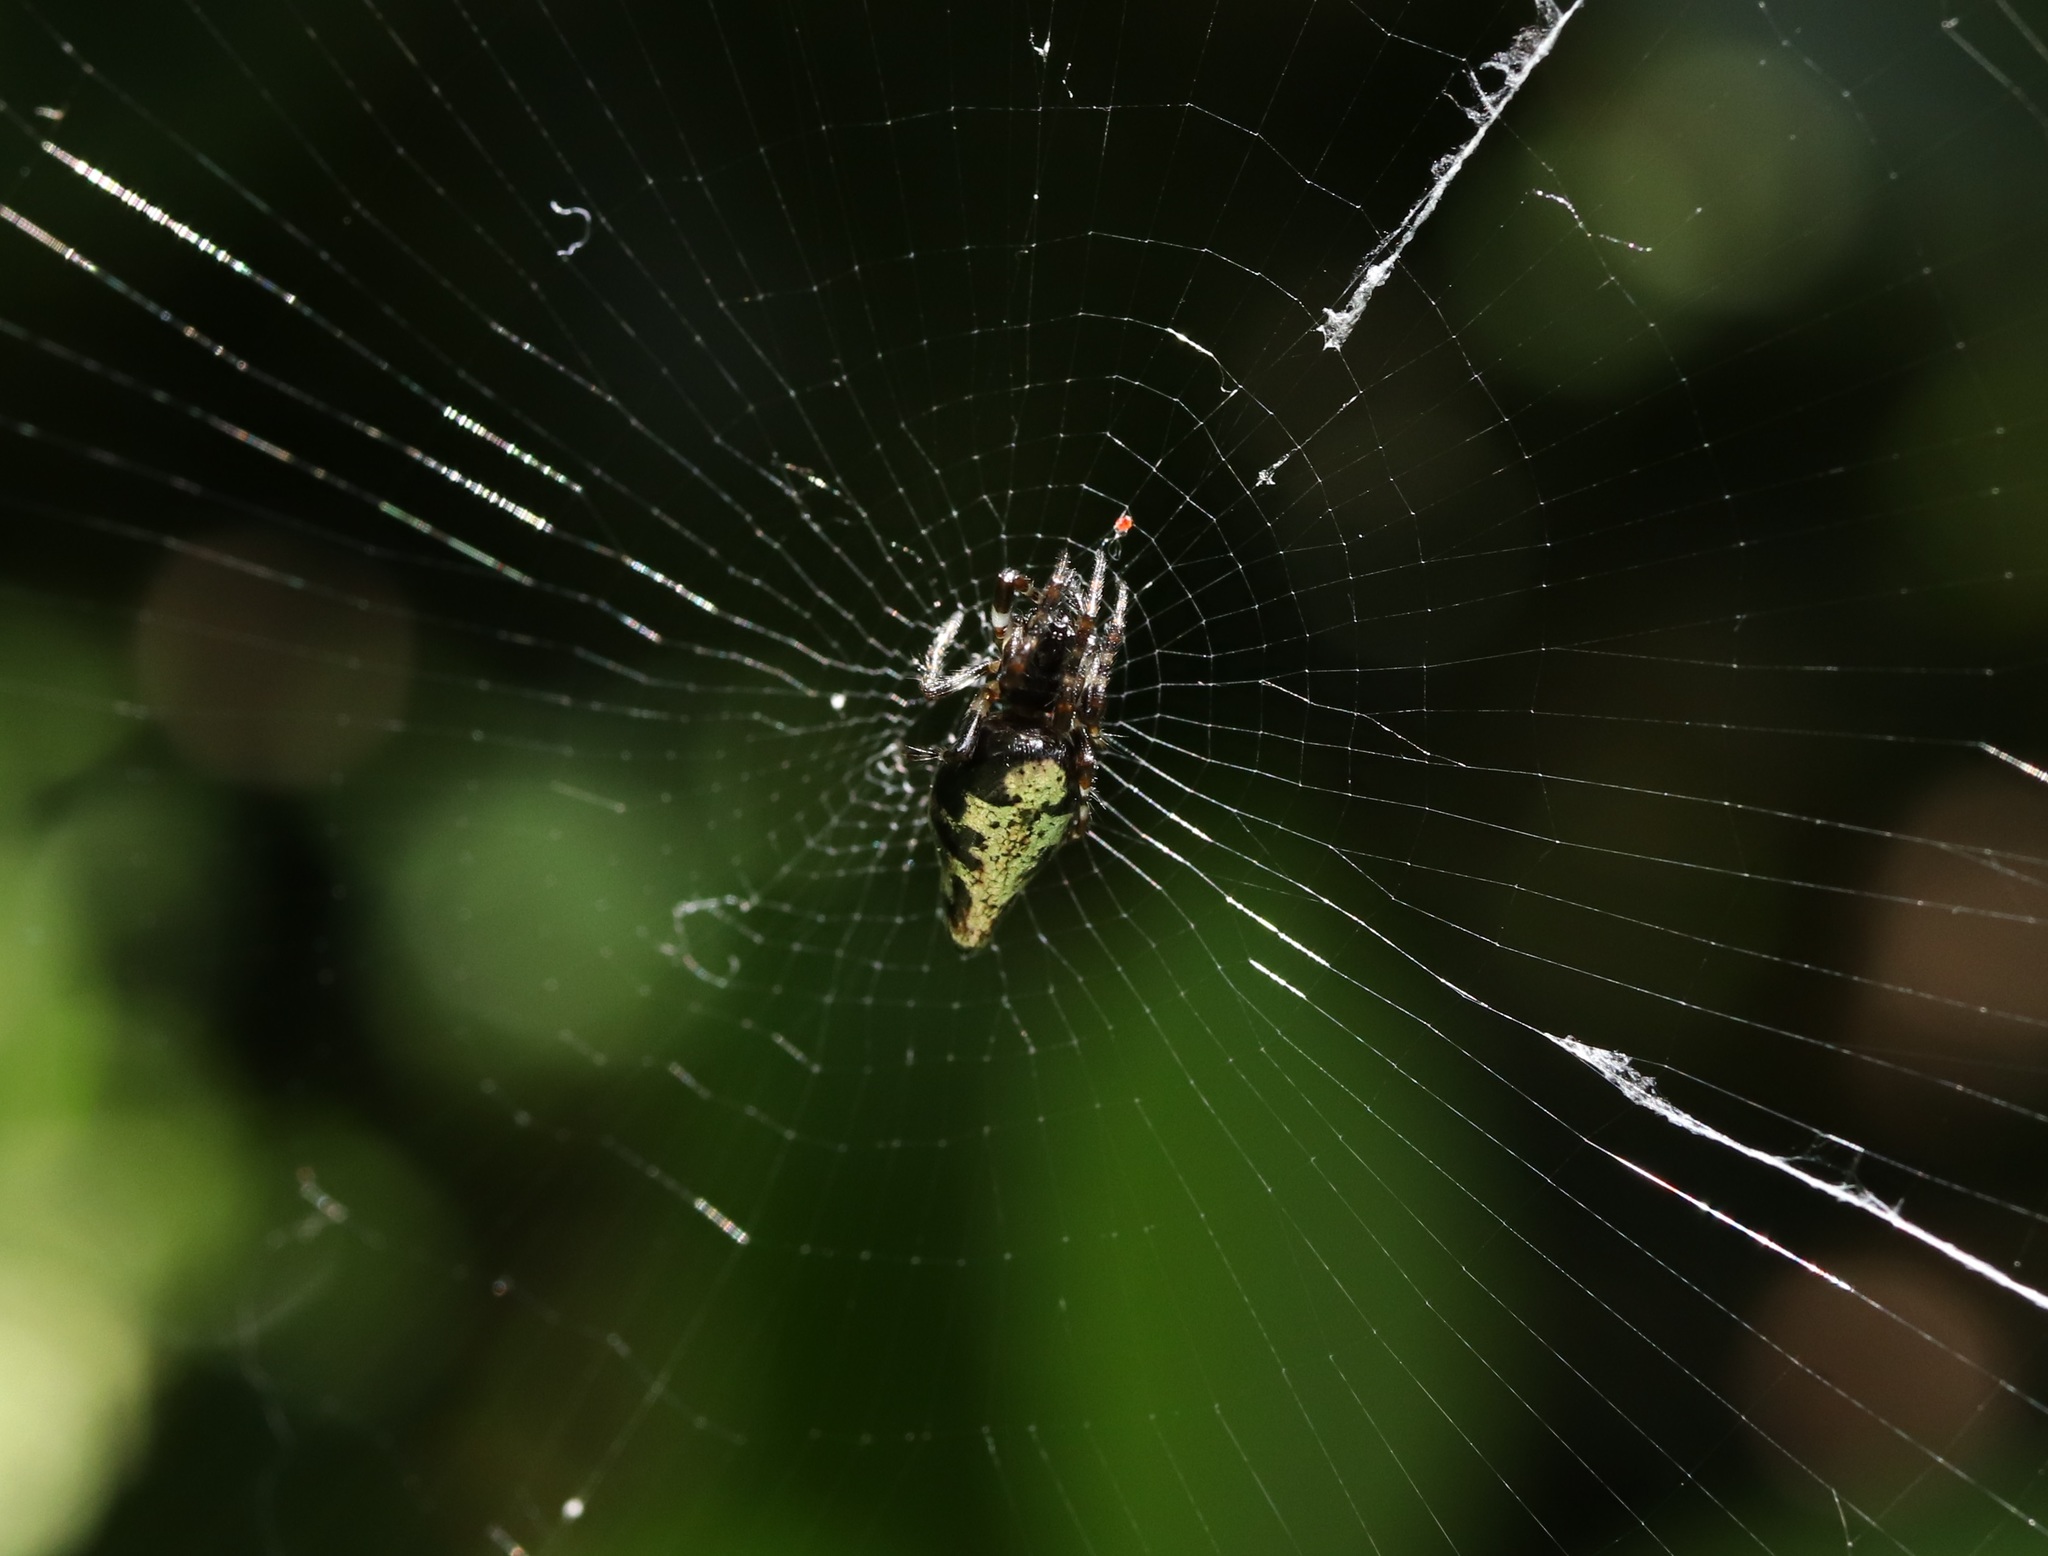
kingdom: Animalia
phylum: Arthropoda
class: Arachnida
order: Araneae
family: Araneidae
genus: Cyclosa
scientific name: Cyclosa argenteoalba
